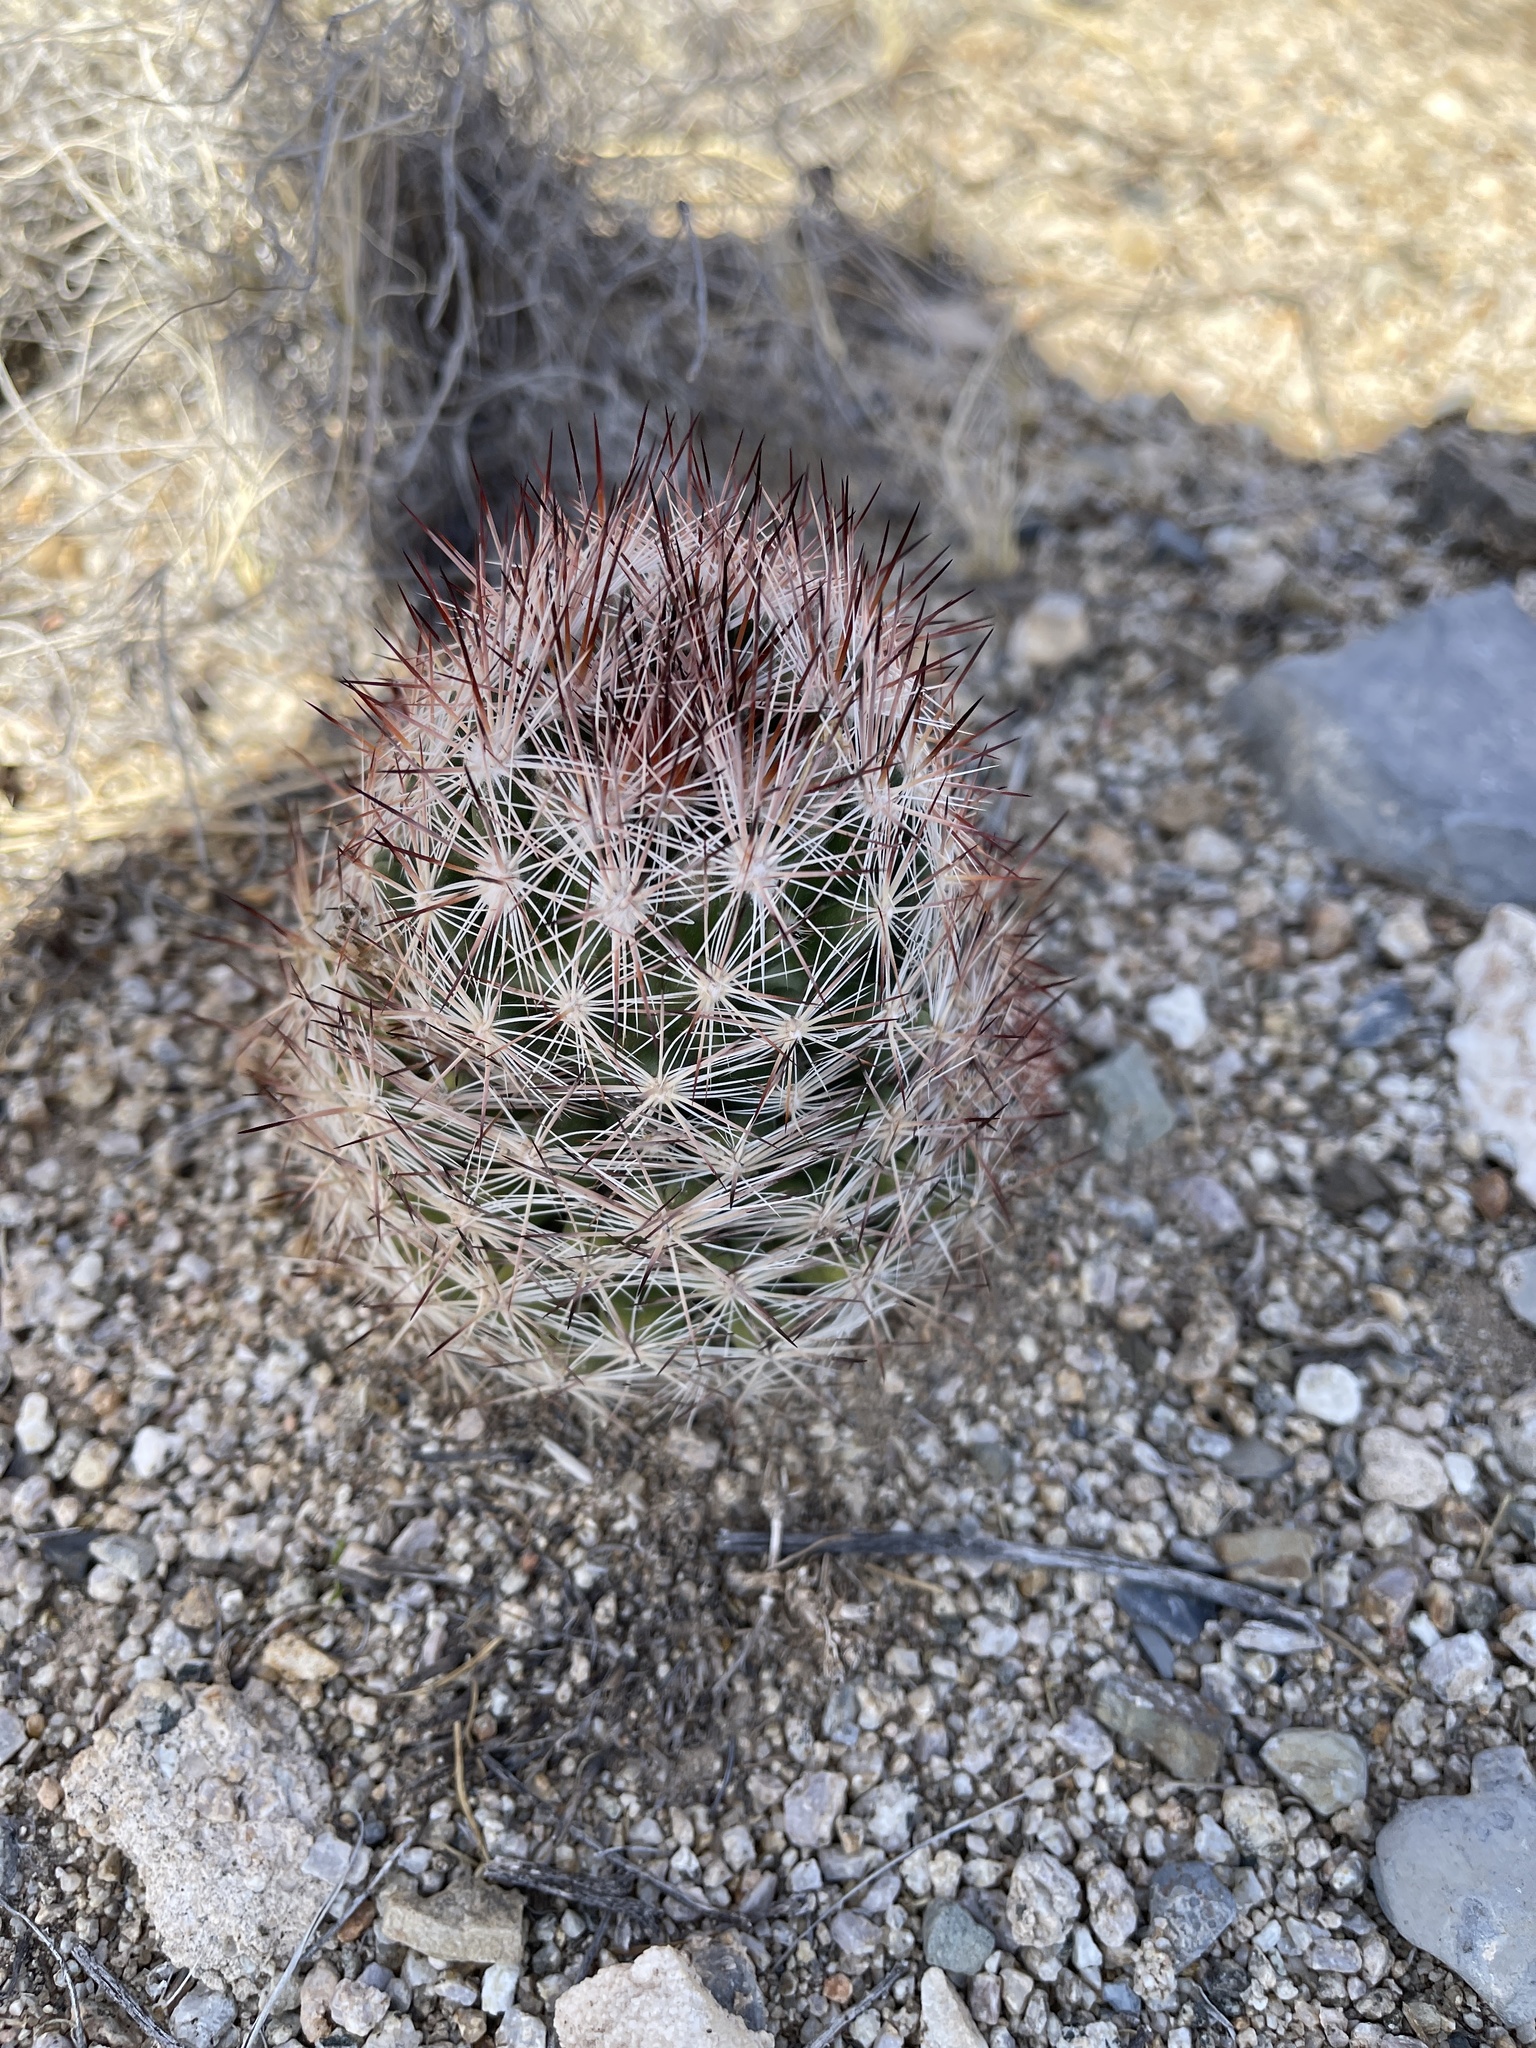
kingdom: Plantae
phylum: Tracheophyta
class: Magnoliopsida
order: Caryophyllales
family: Cactaceae
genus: Pelecyphora
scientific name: Pelecyphora vivipara
